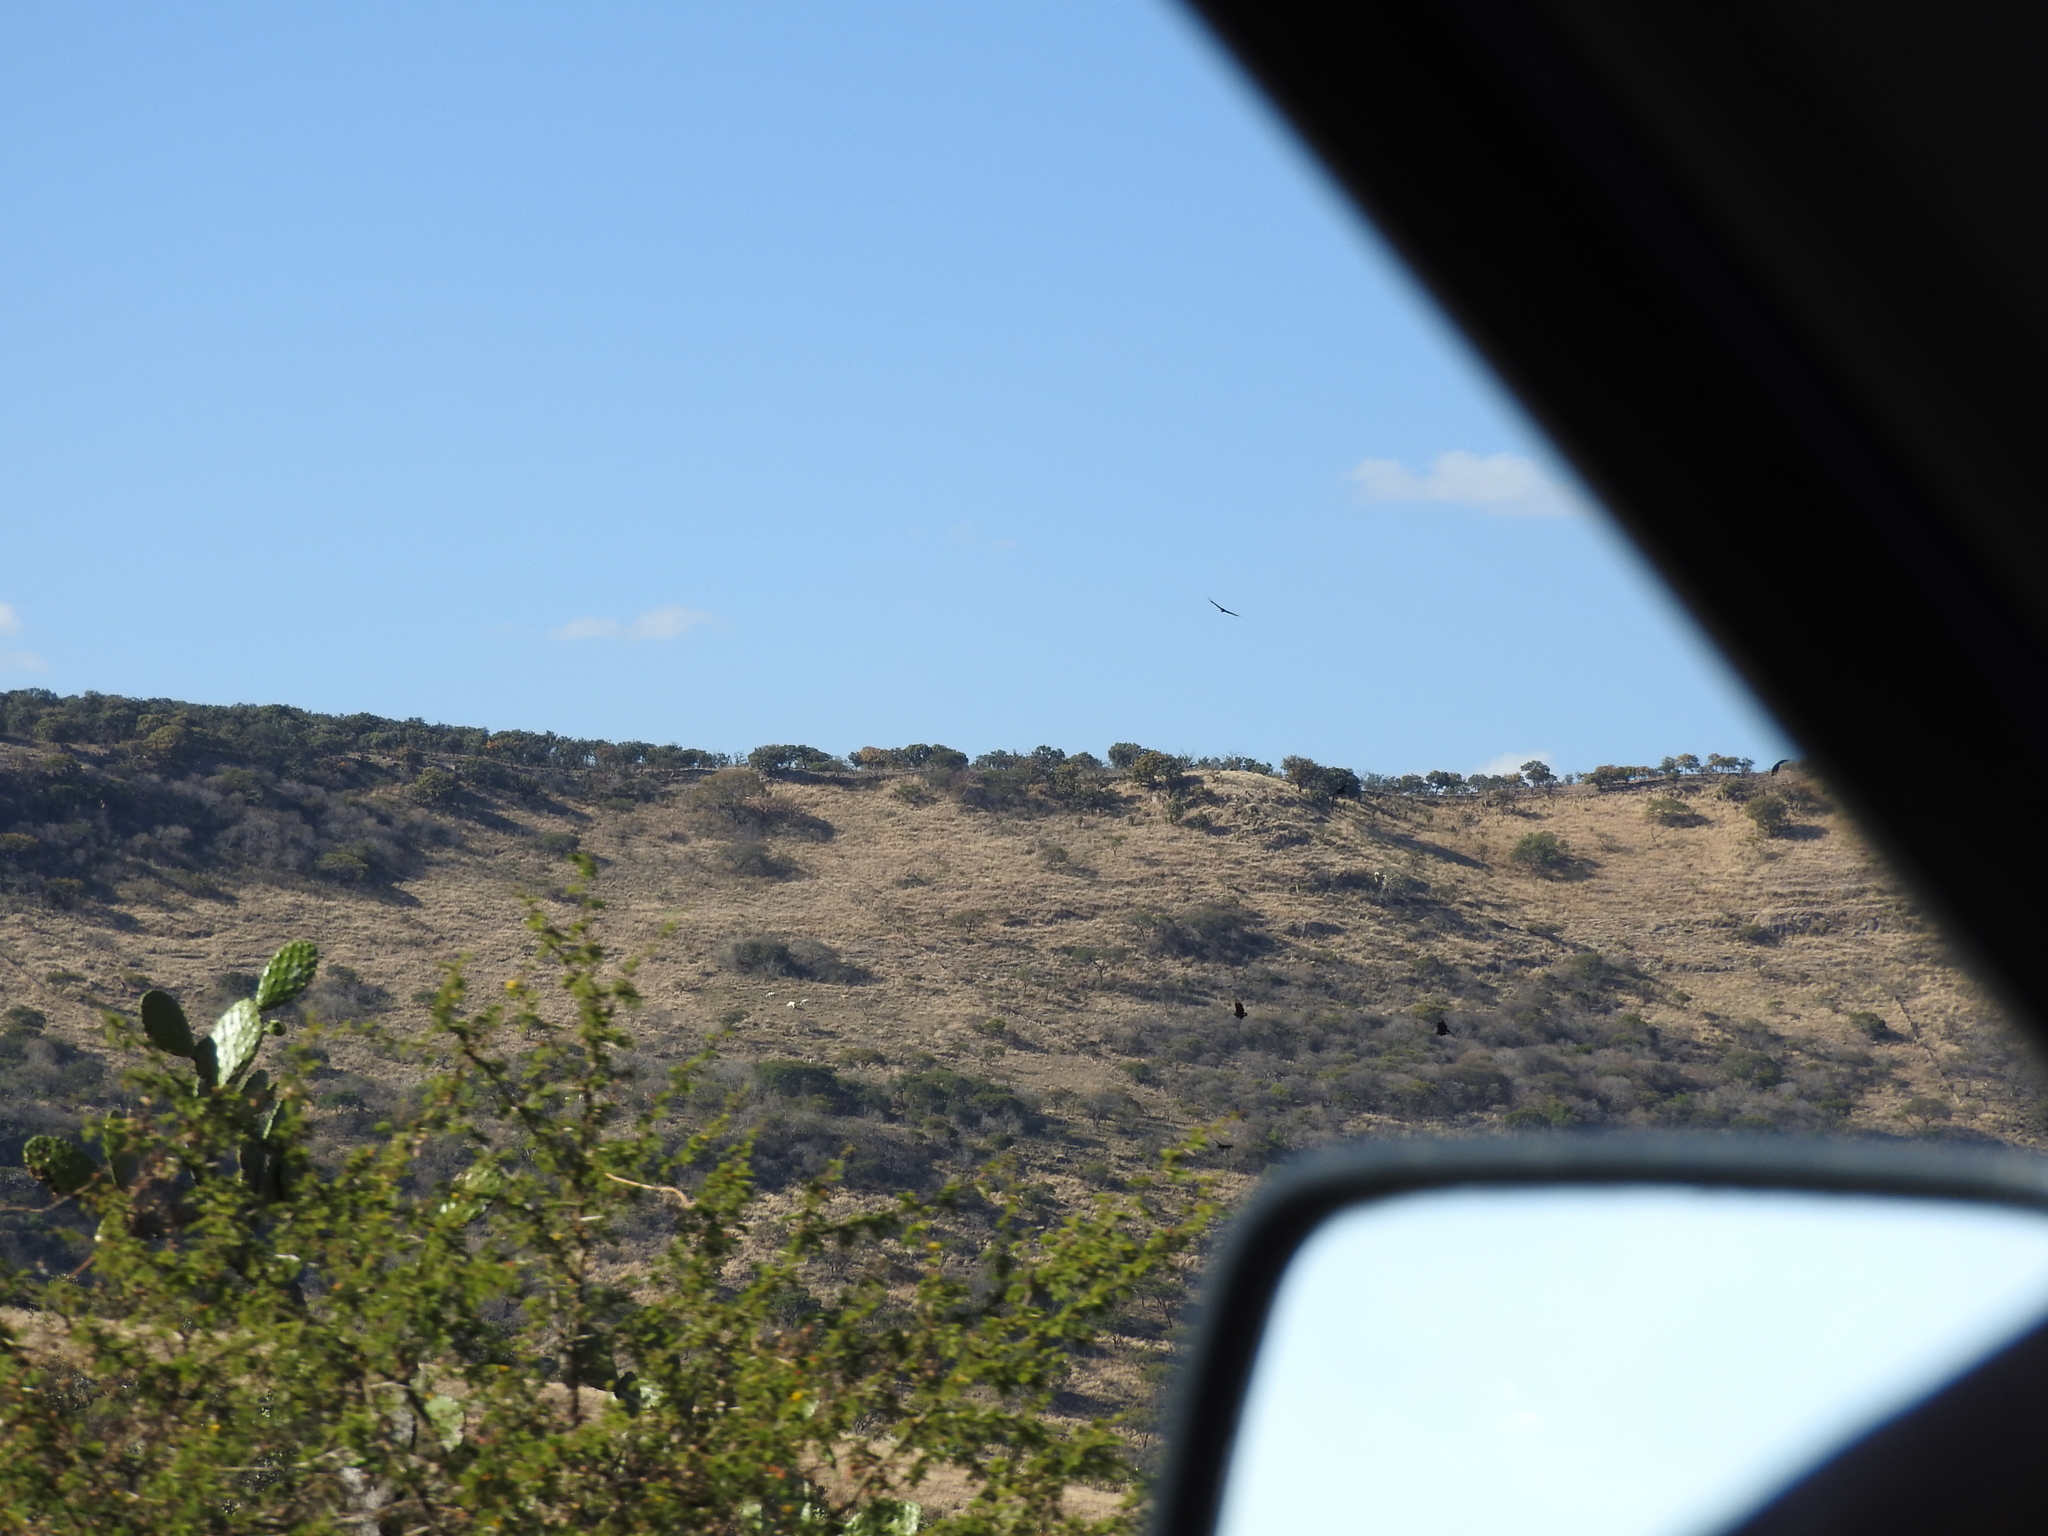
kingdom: Animalia
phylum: Chordata
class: Aves
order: Accipitriformes
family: Cathartidae
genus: Coragyps
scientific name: Coragyps atratus
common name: Black vulture
